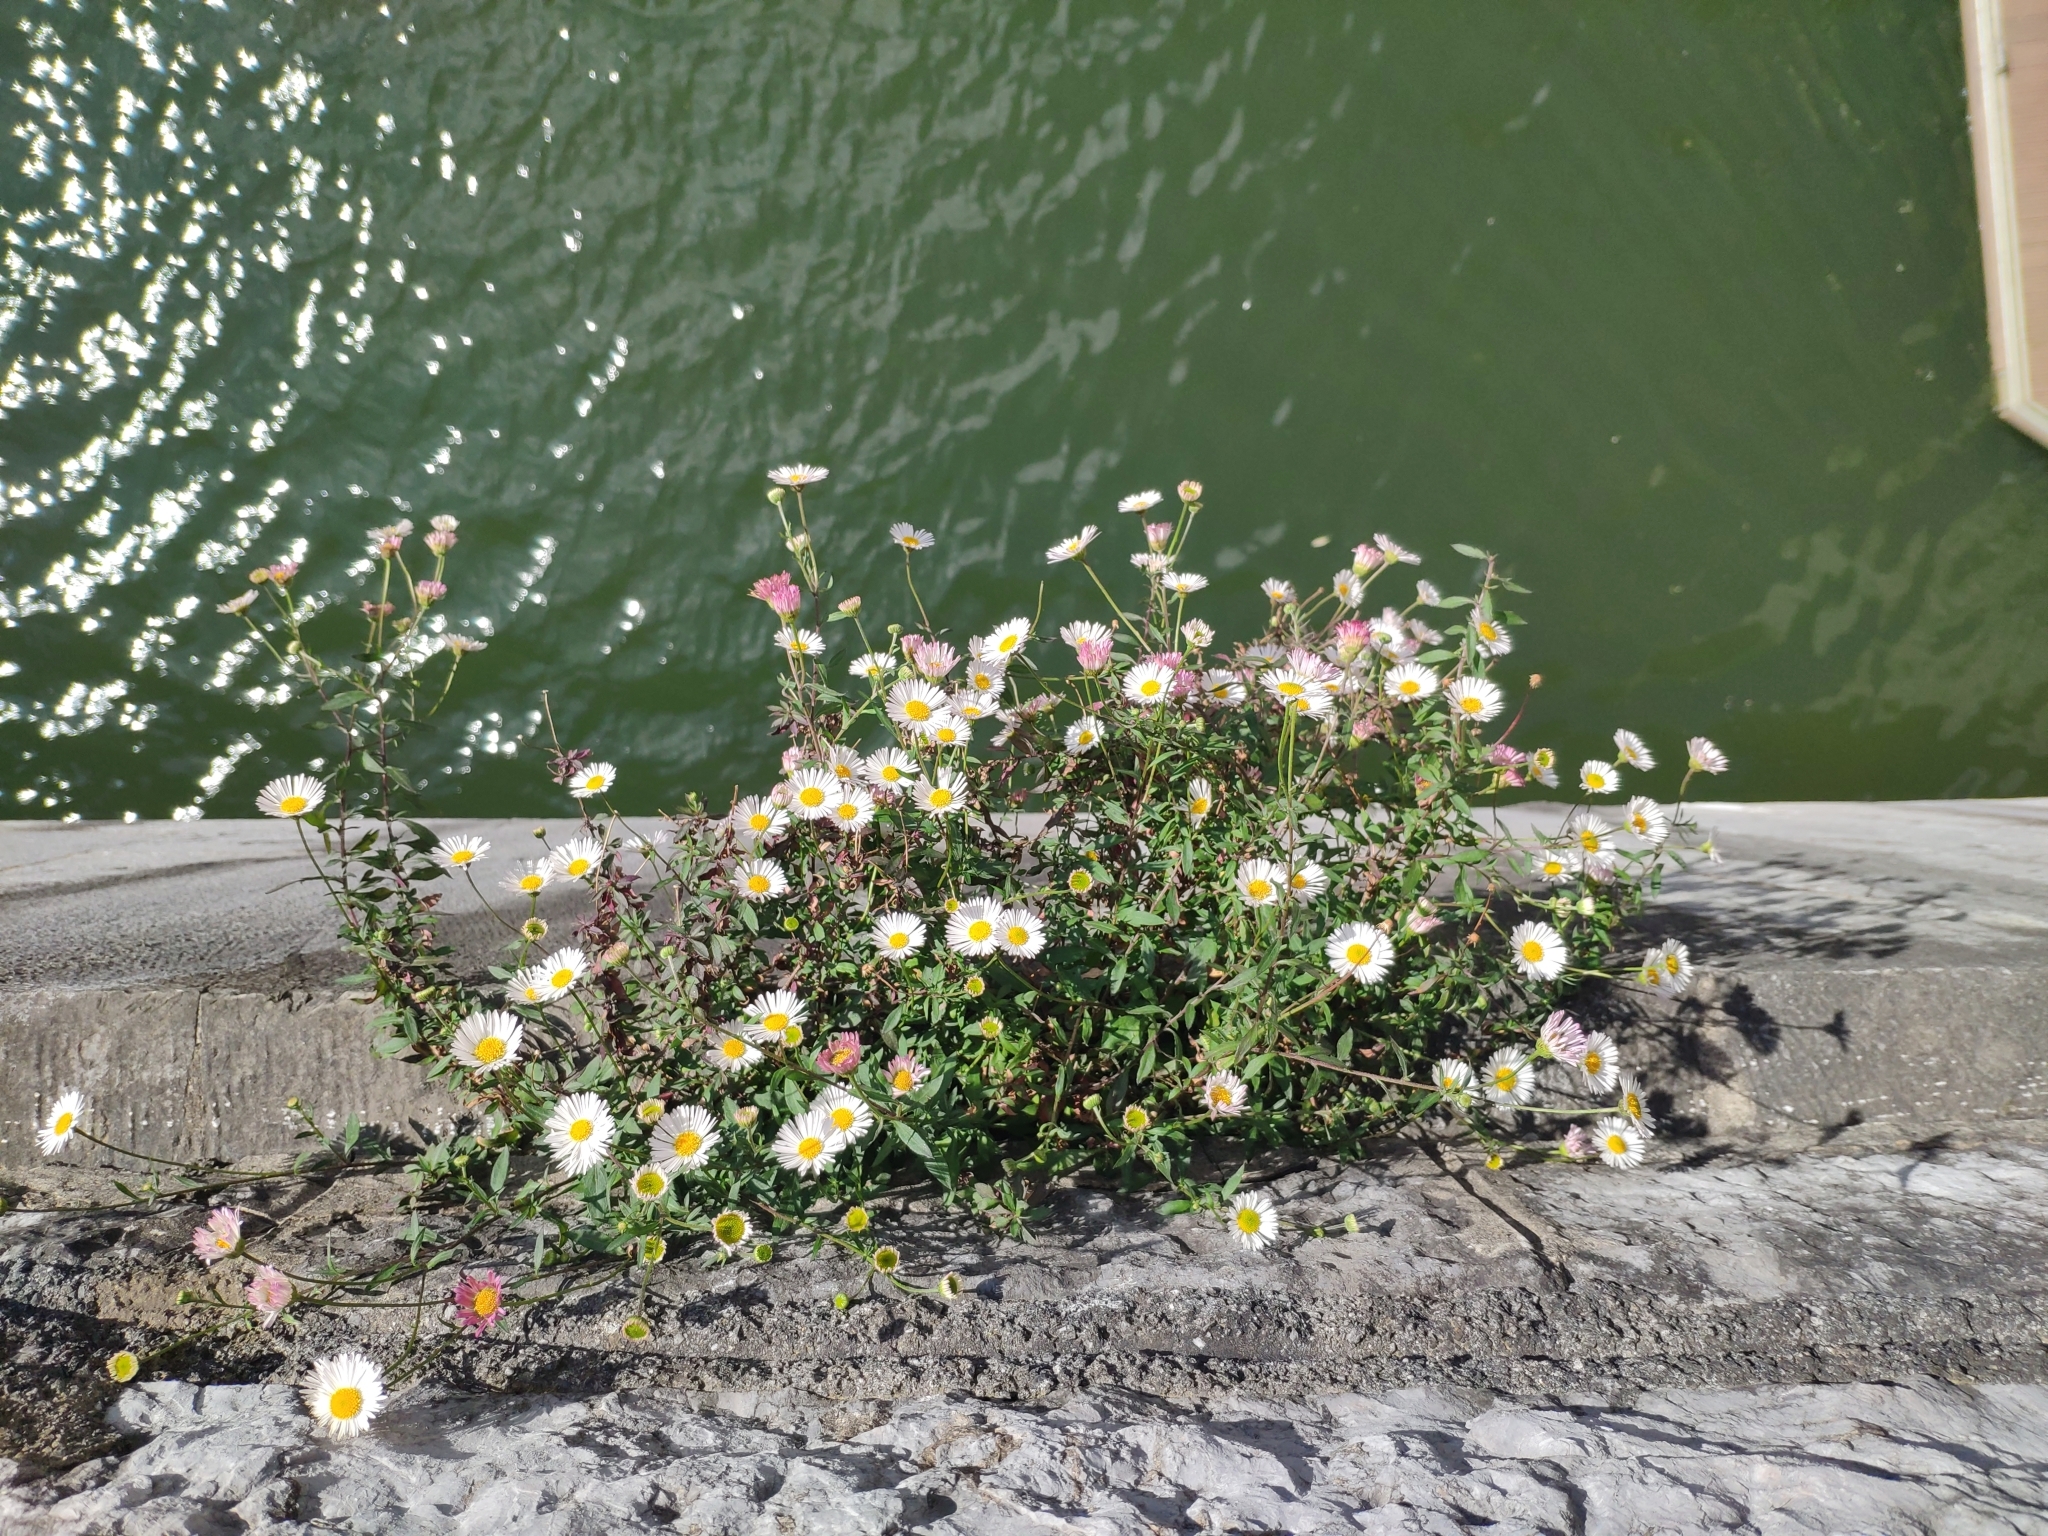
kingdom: Plantae
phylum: Tracheophyta
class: Magnoliopsida
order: Asterales
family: Asteraceae
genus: Erigeron
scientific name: Erigeron karvinskianus
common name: Mexican fleabane
